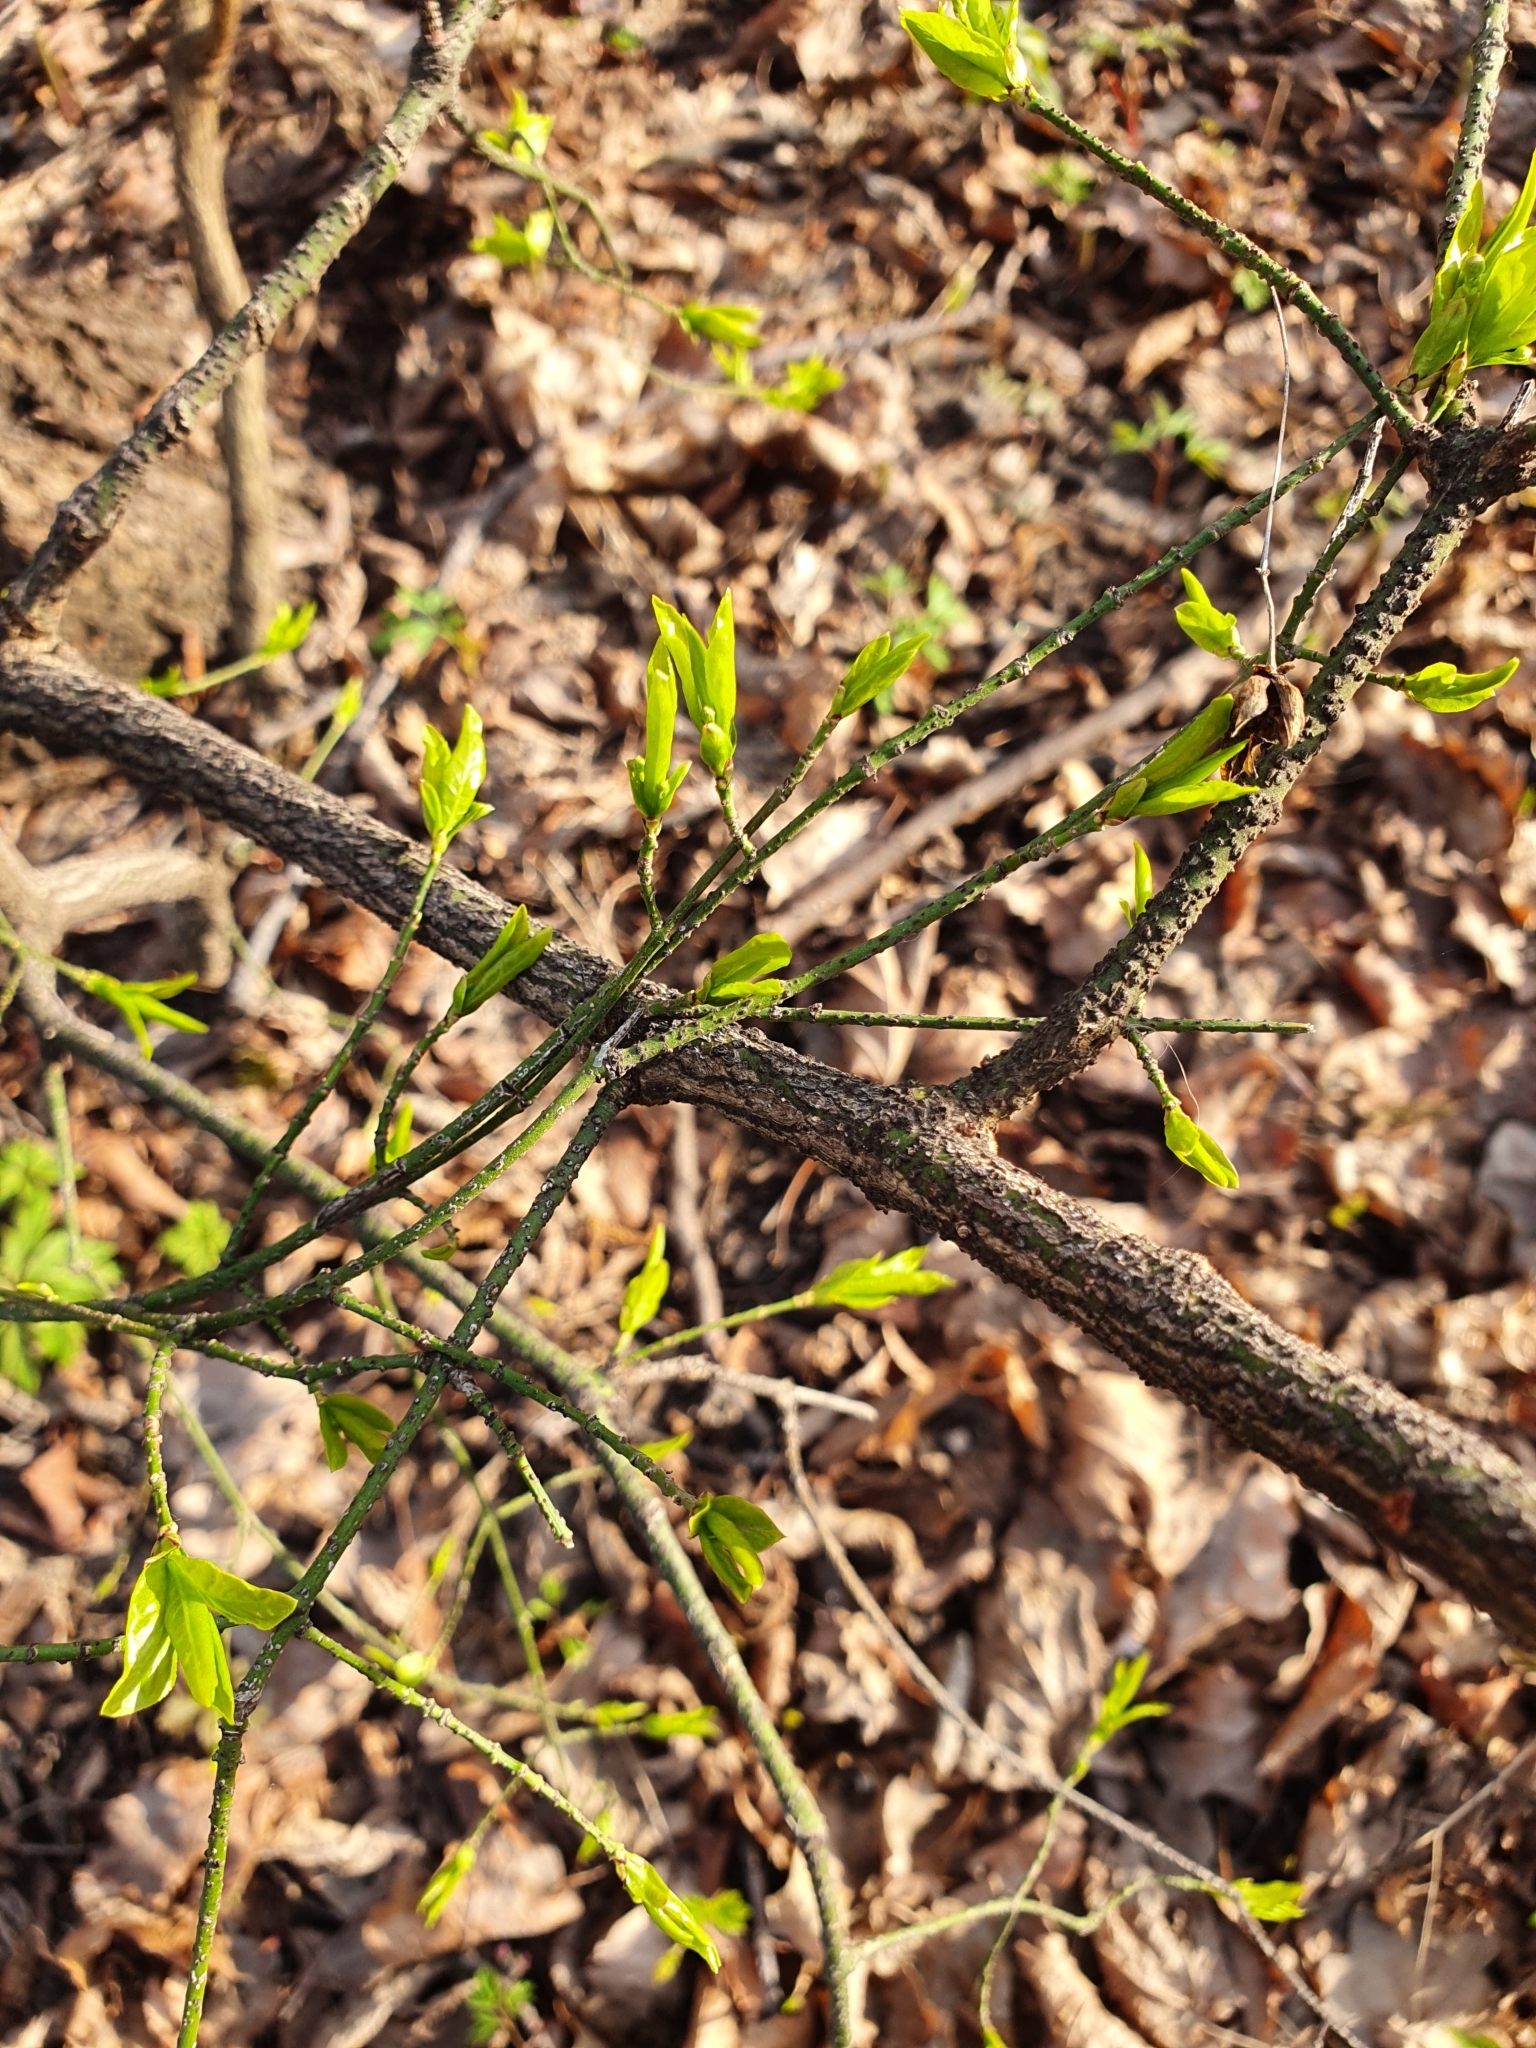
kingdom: Plantae
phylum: Tracheophyta
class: Magnoliopsida
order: Celastrales
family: Celastraceae
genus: Euonymus
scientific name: Euonymus verrucosus
